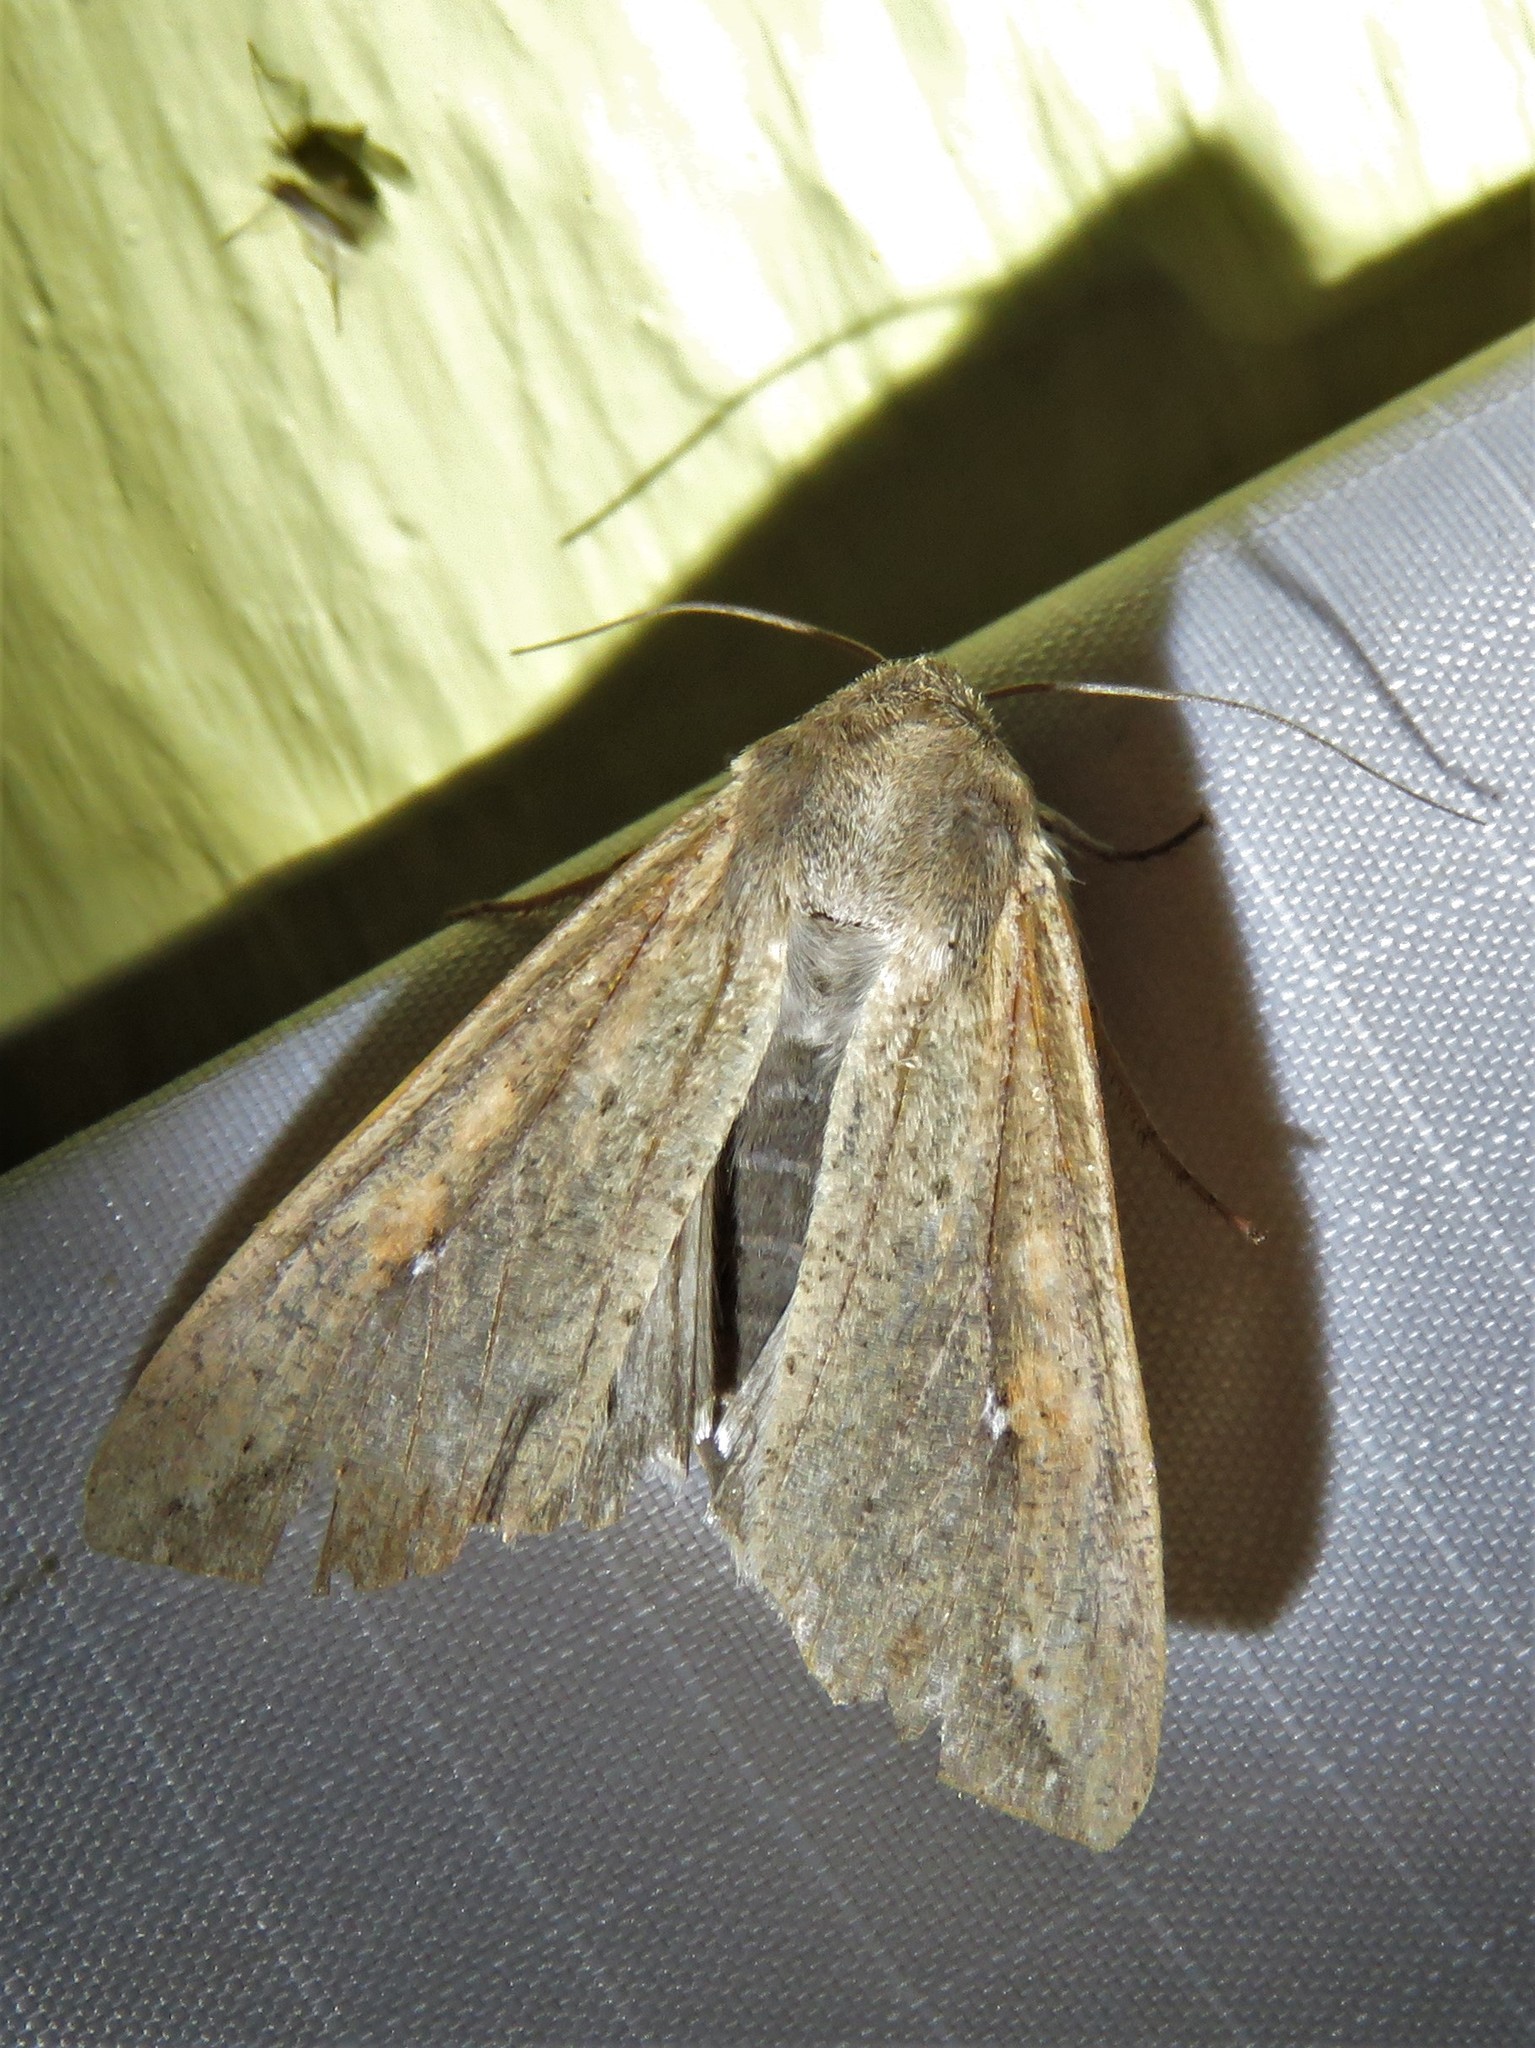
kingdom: Animalia
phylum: Arthropoda
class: Insecta
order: Lepidoptera
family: Noctuidae
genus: Mythimna
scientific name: Mythimna unipuncta
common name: White-speck
